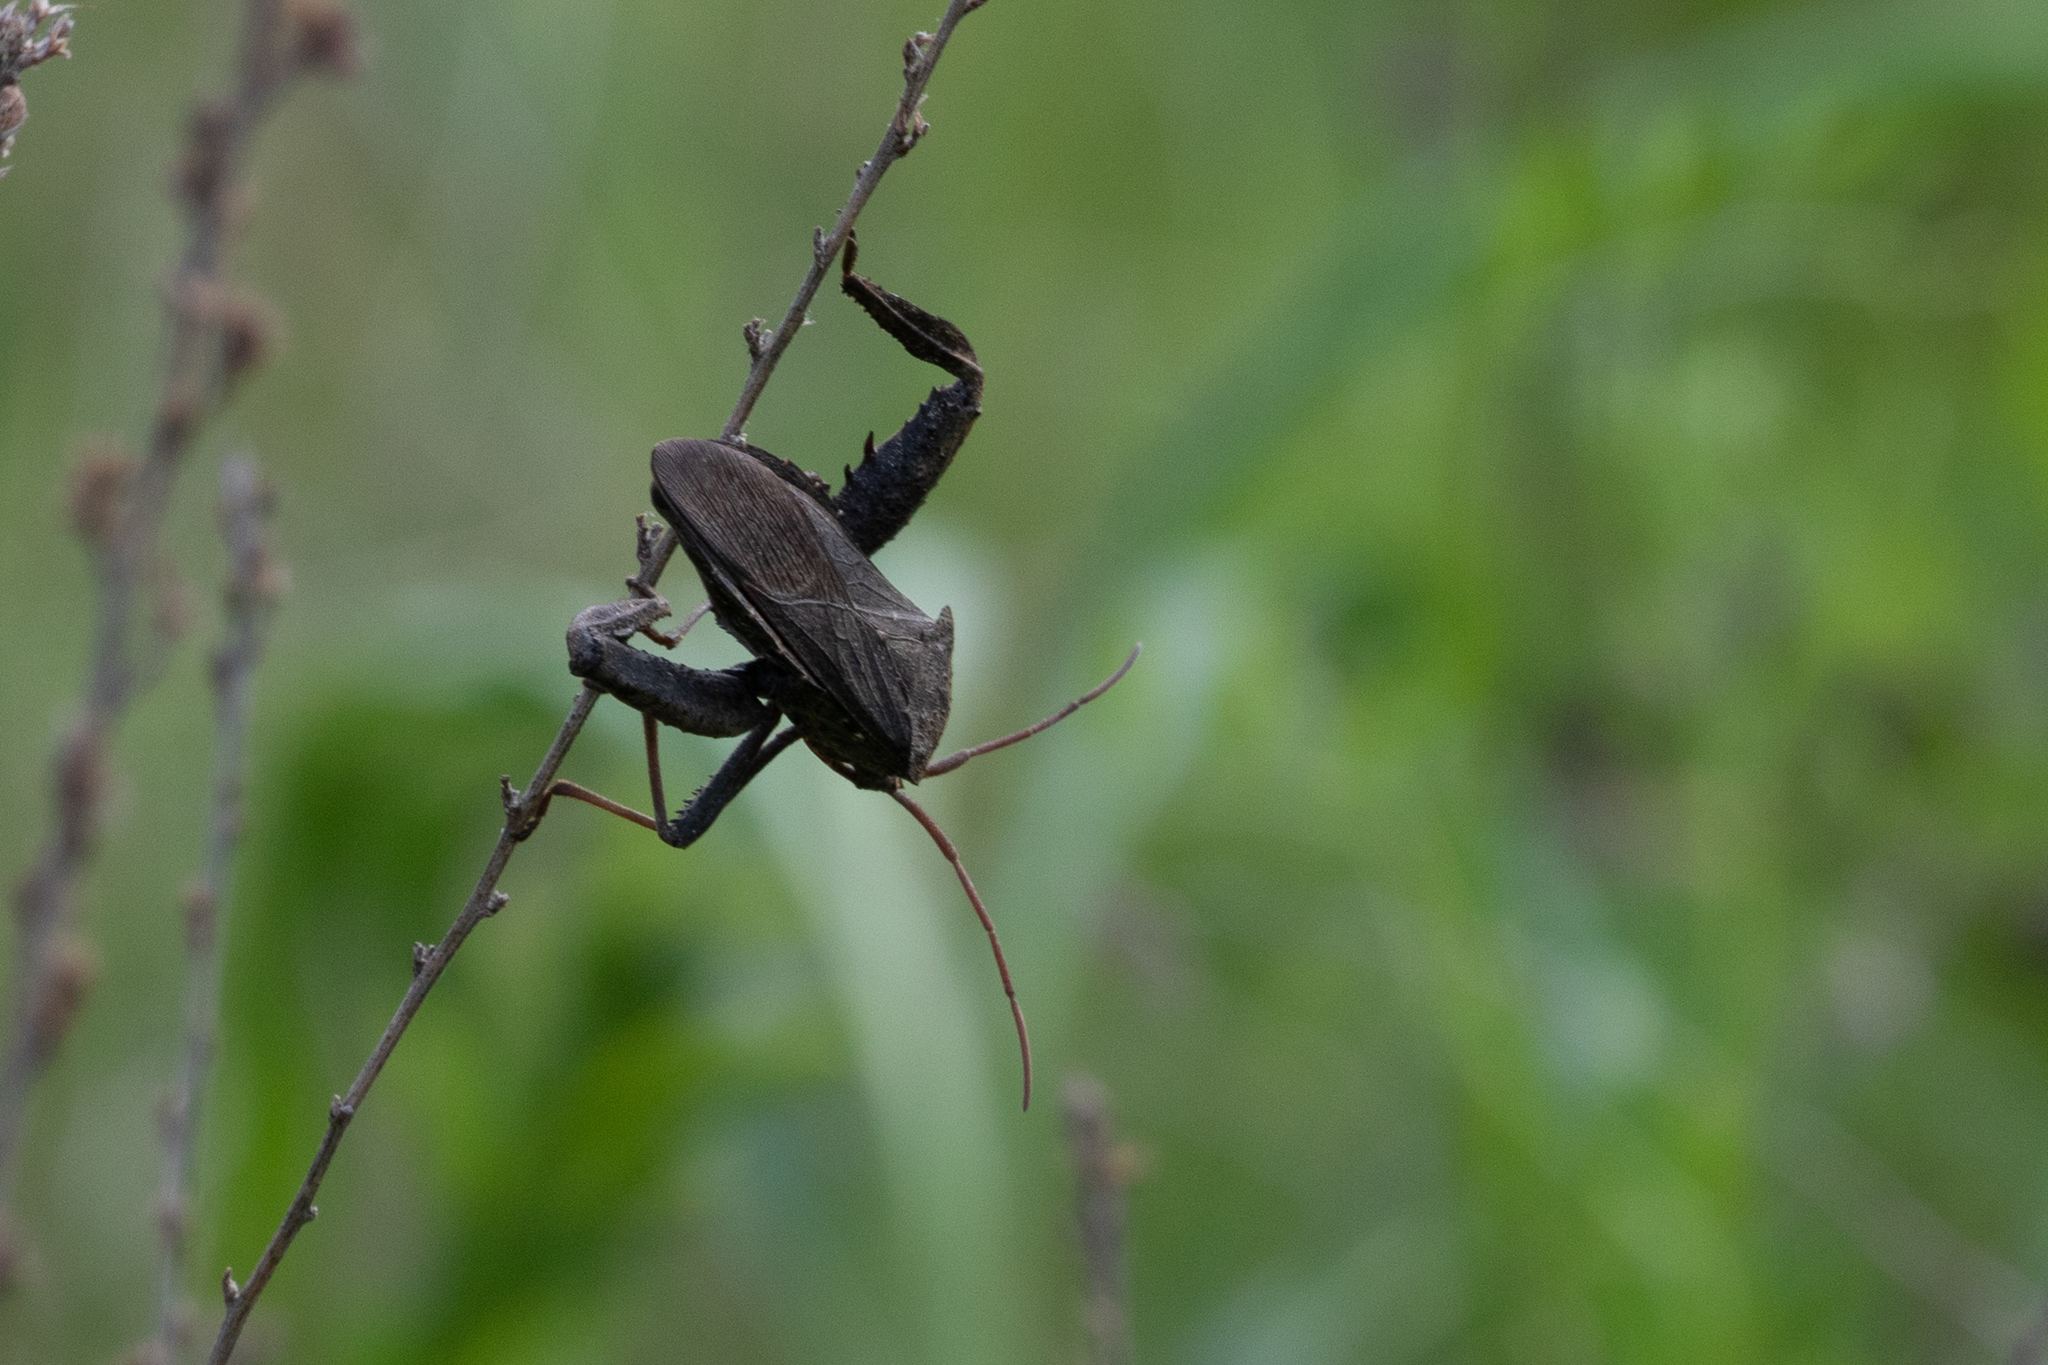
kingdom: Animalia
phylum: Arthropoda
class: Insecta
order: Hemiptera
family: Coreidae
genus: Acanthocephala
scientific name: Acanthocephala femorata
